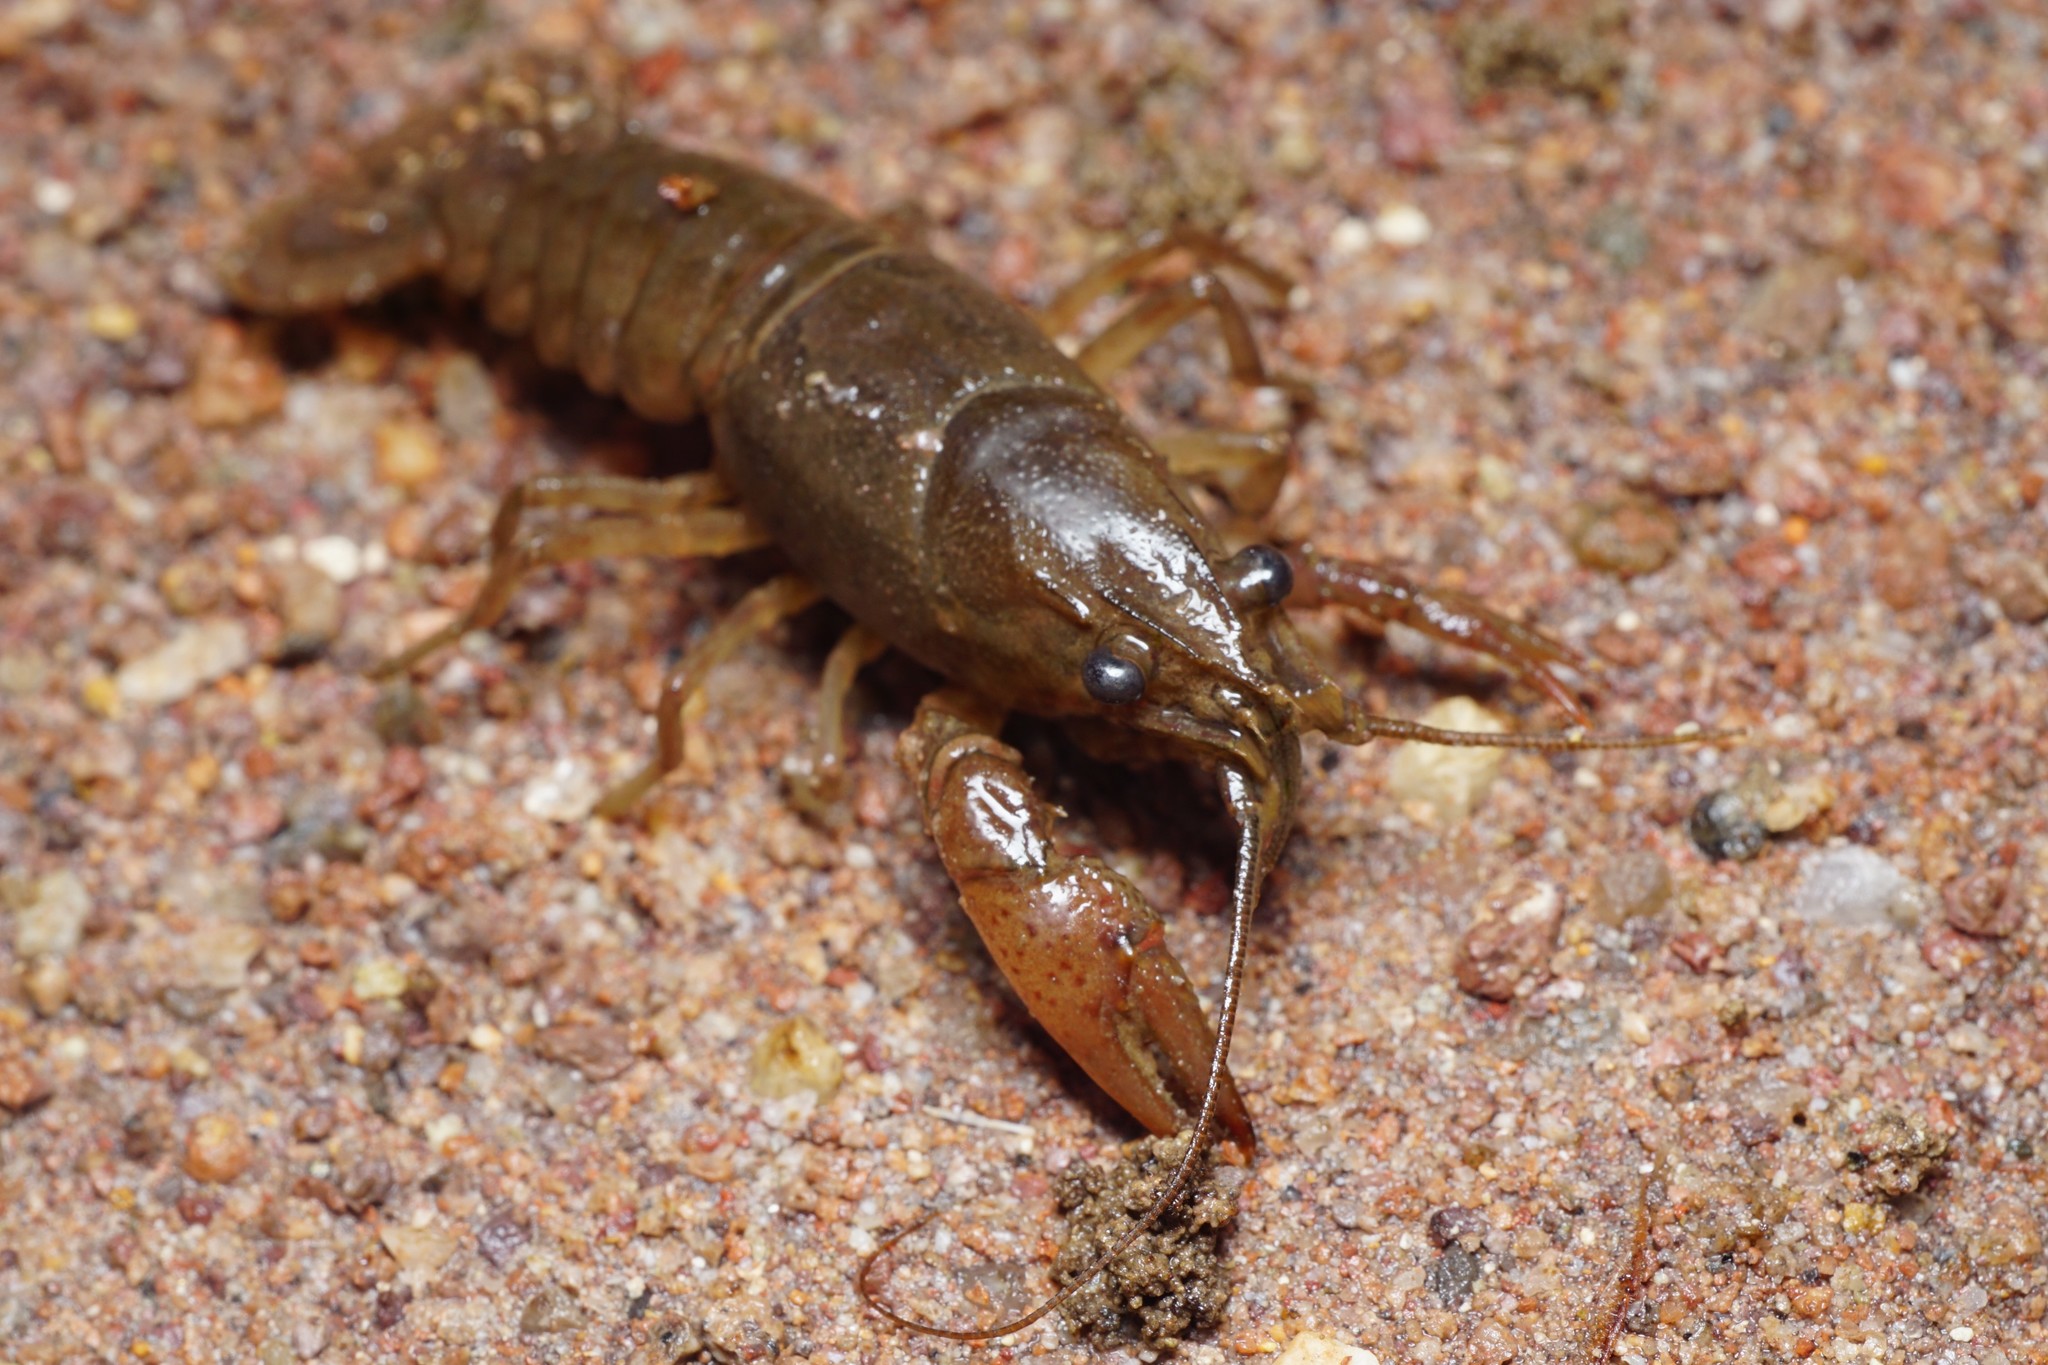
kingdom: Animalia
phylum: Arthropoda
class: Malacostraca
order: Decapoda
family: Cambaridae
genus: Faxonius
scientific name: Faxonius virilis
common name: Virile crayfish
